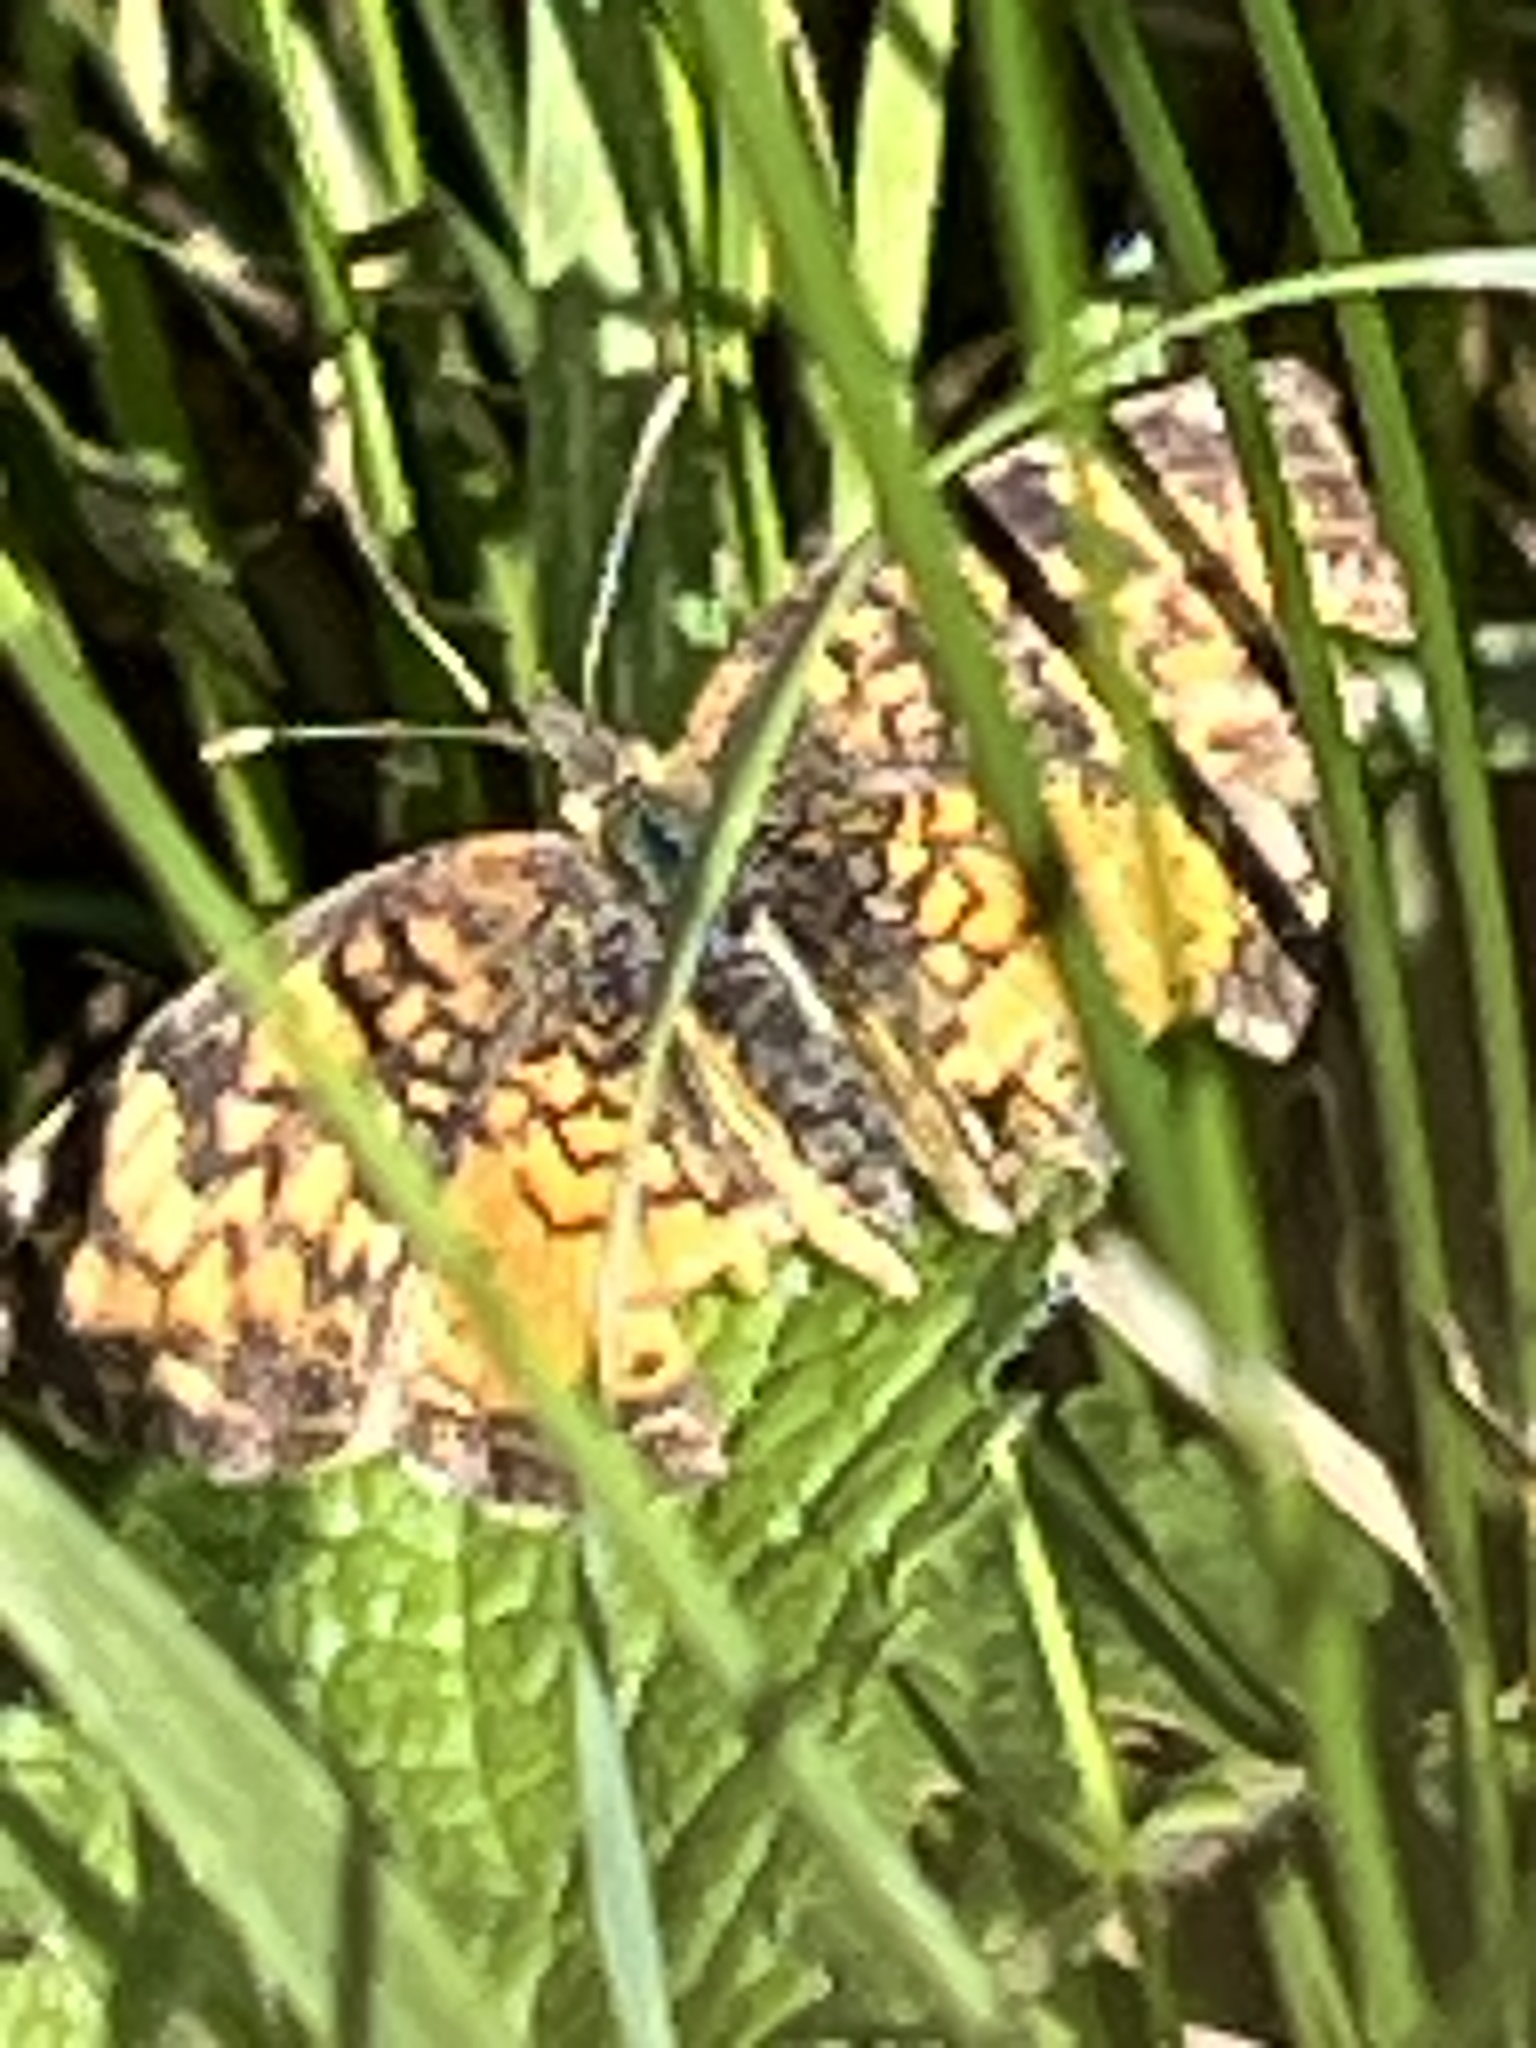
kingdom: Animalia
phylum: Arthropoda
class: Insecta
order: Lepidoptera
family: Nymphalidae
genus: Phyciodes
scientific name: Phyciodes tharos
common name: Pearl crescent
